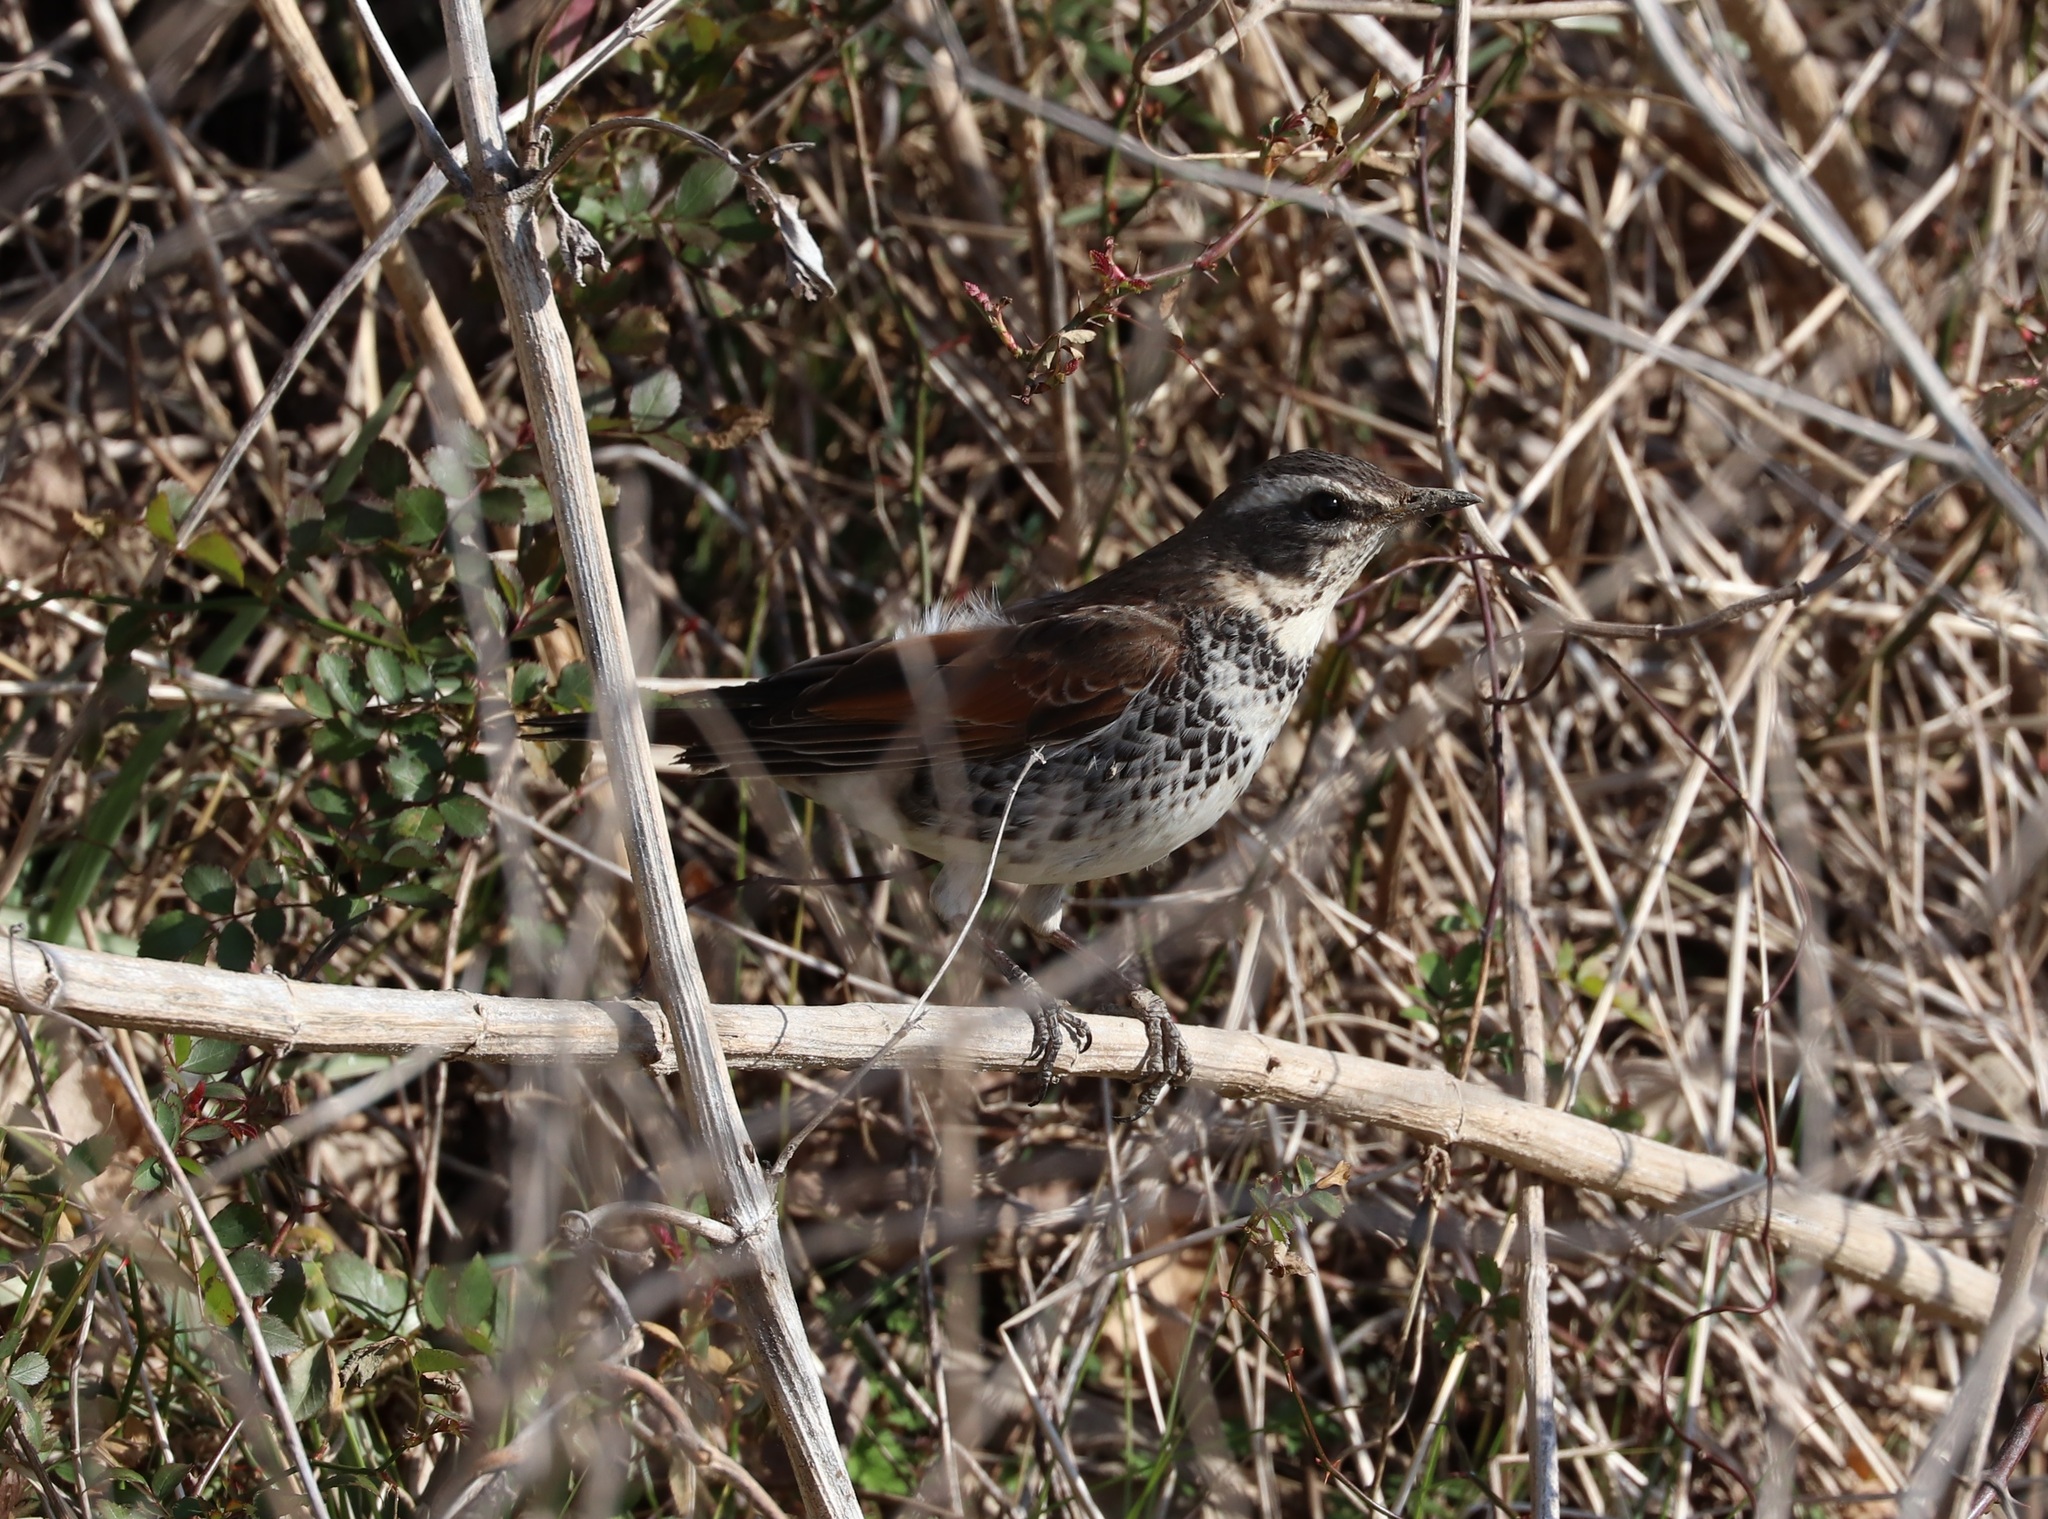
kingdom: Animalia
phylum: Chordata
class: Aves
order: Passeriformes
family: Turdidae
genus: Turdus
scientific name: Turdus eunomus
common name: Dusky thrush
